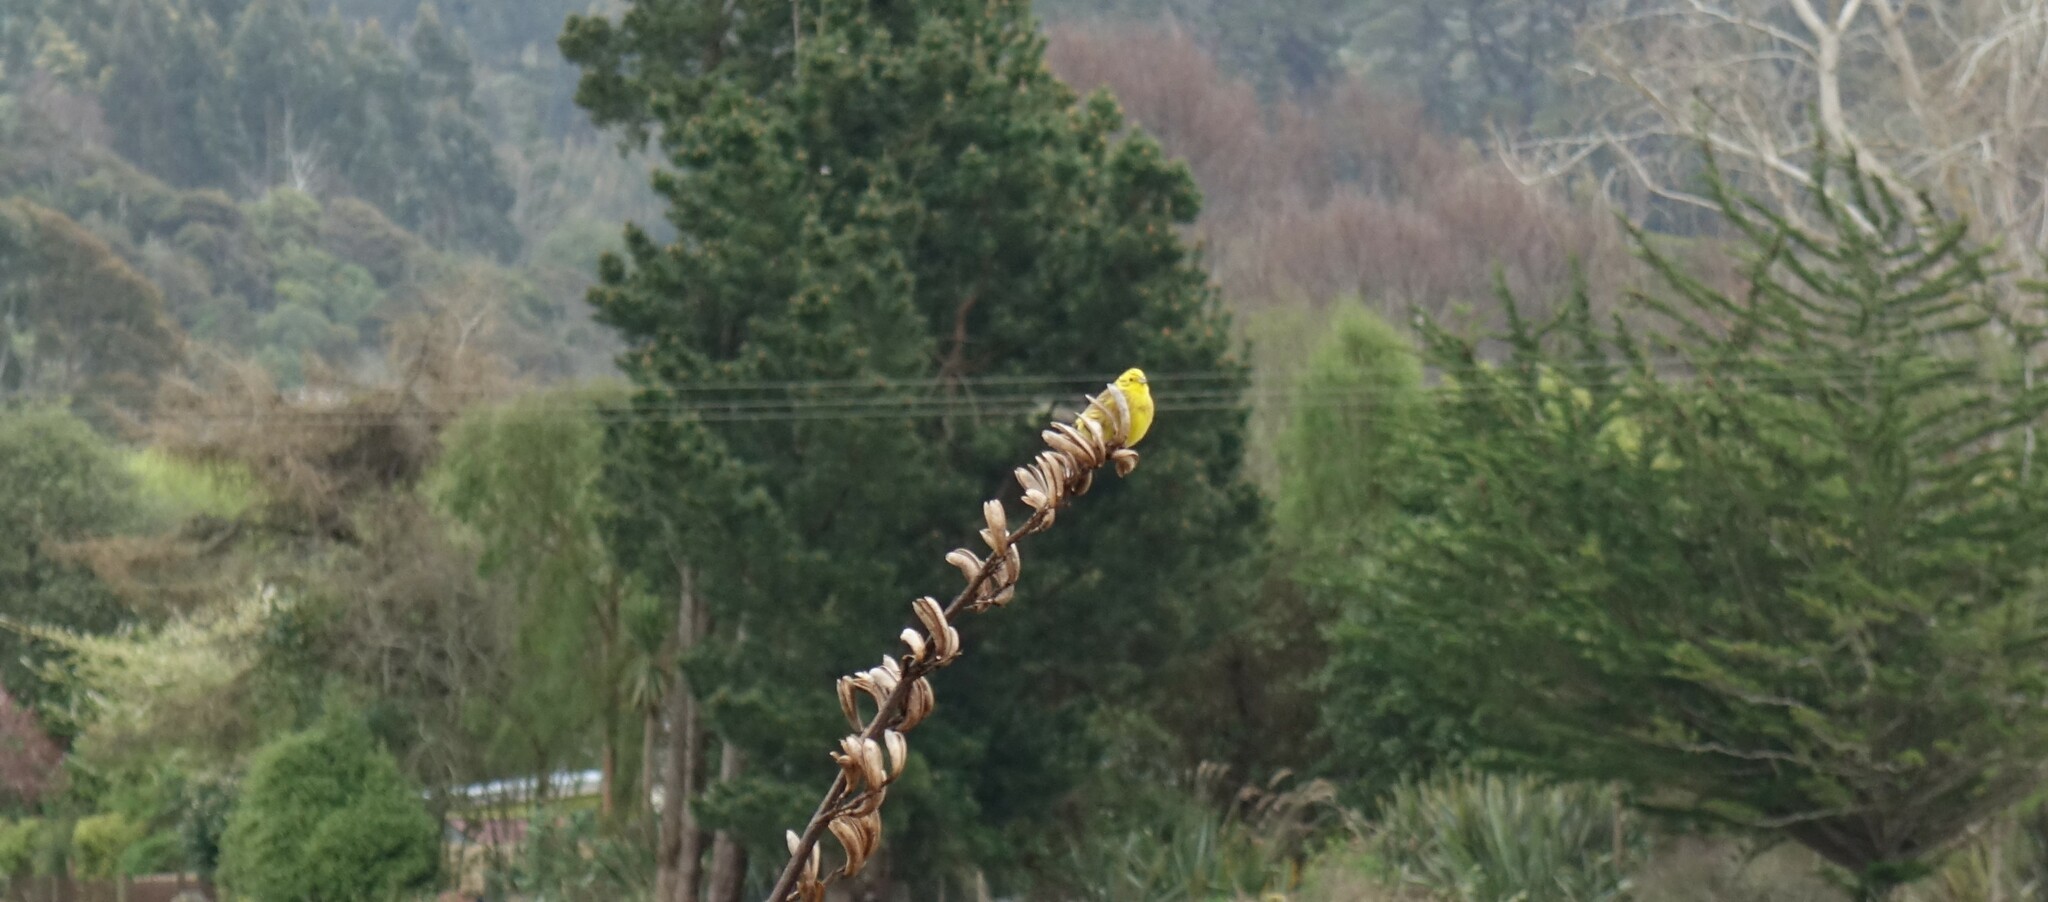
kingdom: Animalia
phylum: Chordata
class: Aves
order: Passeriformes
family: Emberizidae
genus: Emberiza
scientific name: Emberiza citrinella
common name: Yellowhammer
